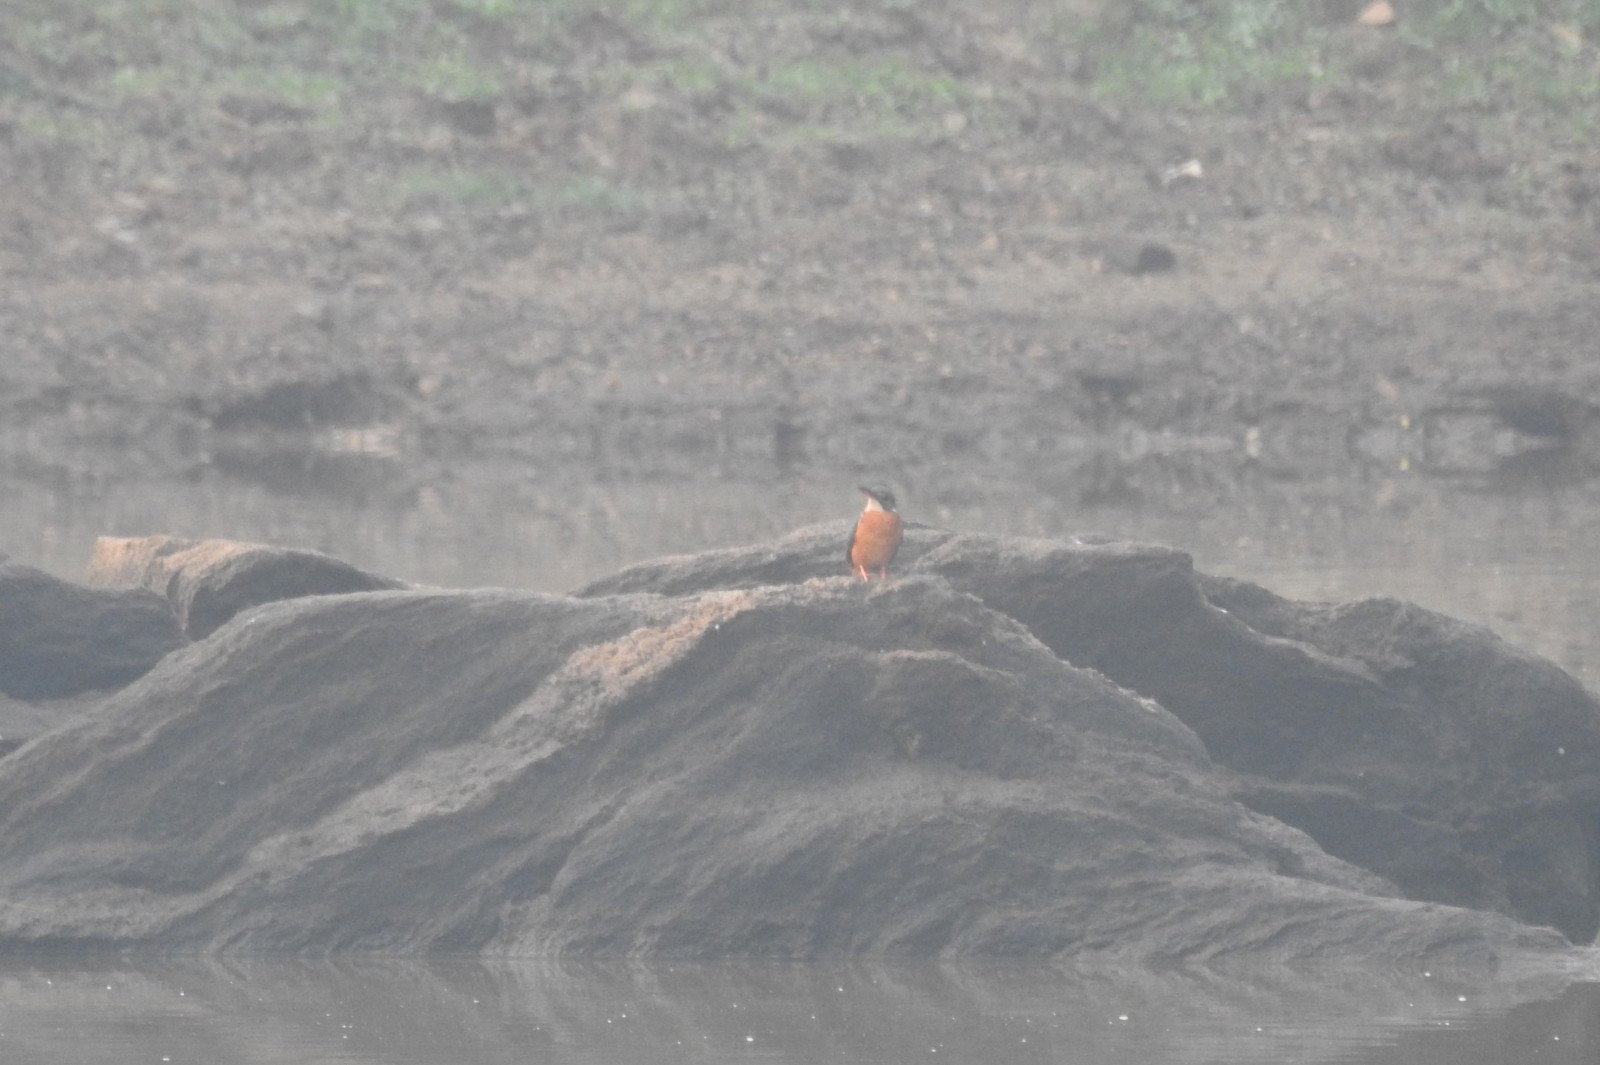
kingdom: Animalia
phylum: Chordata
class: Aves
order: Coraciiformes
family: Alcedinidae
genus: Alcedo
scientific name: Alcedo atthis
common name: Common kingfisher
